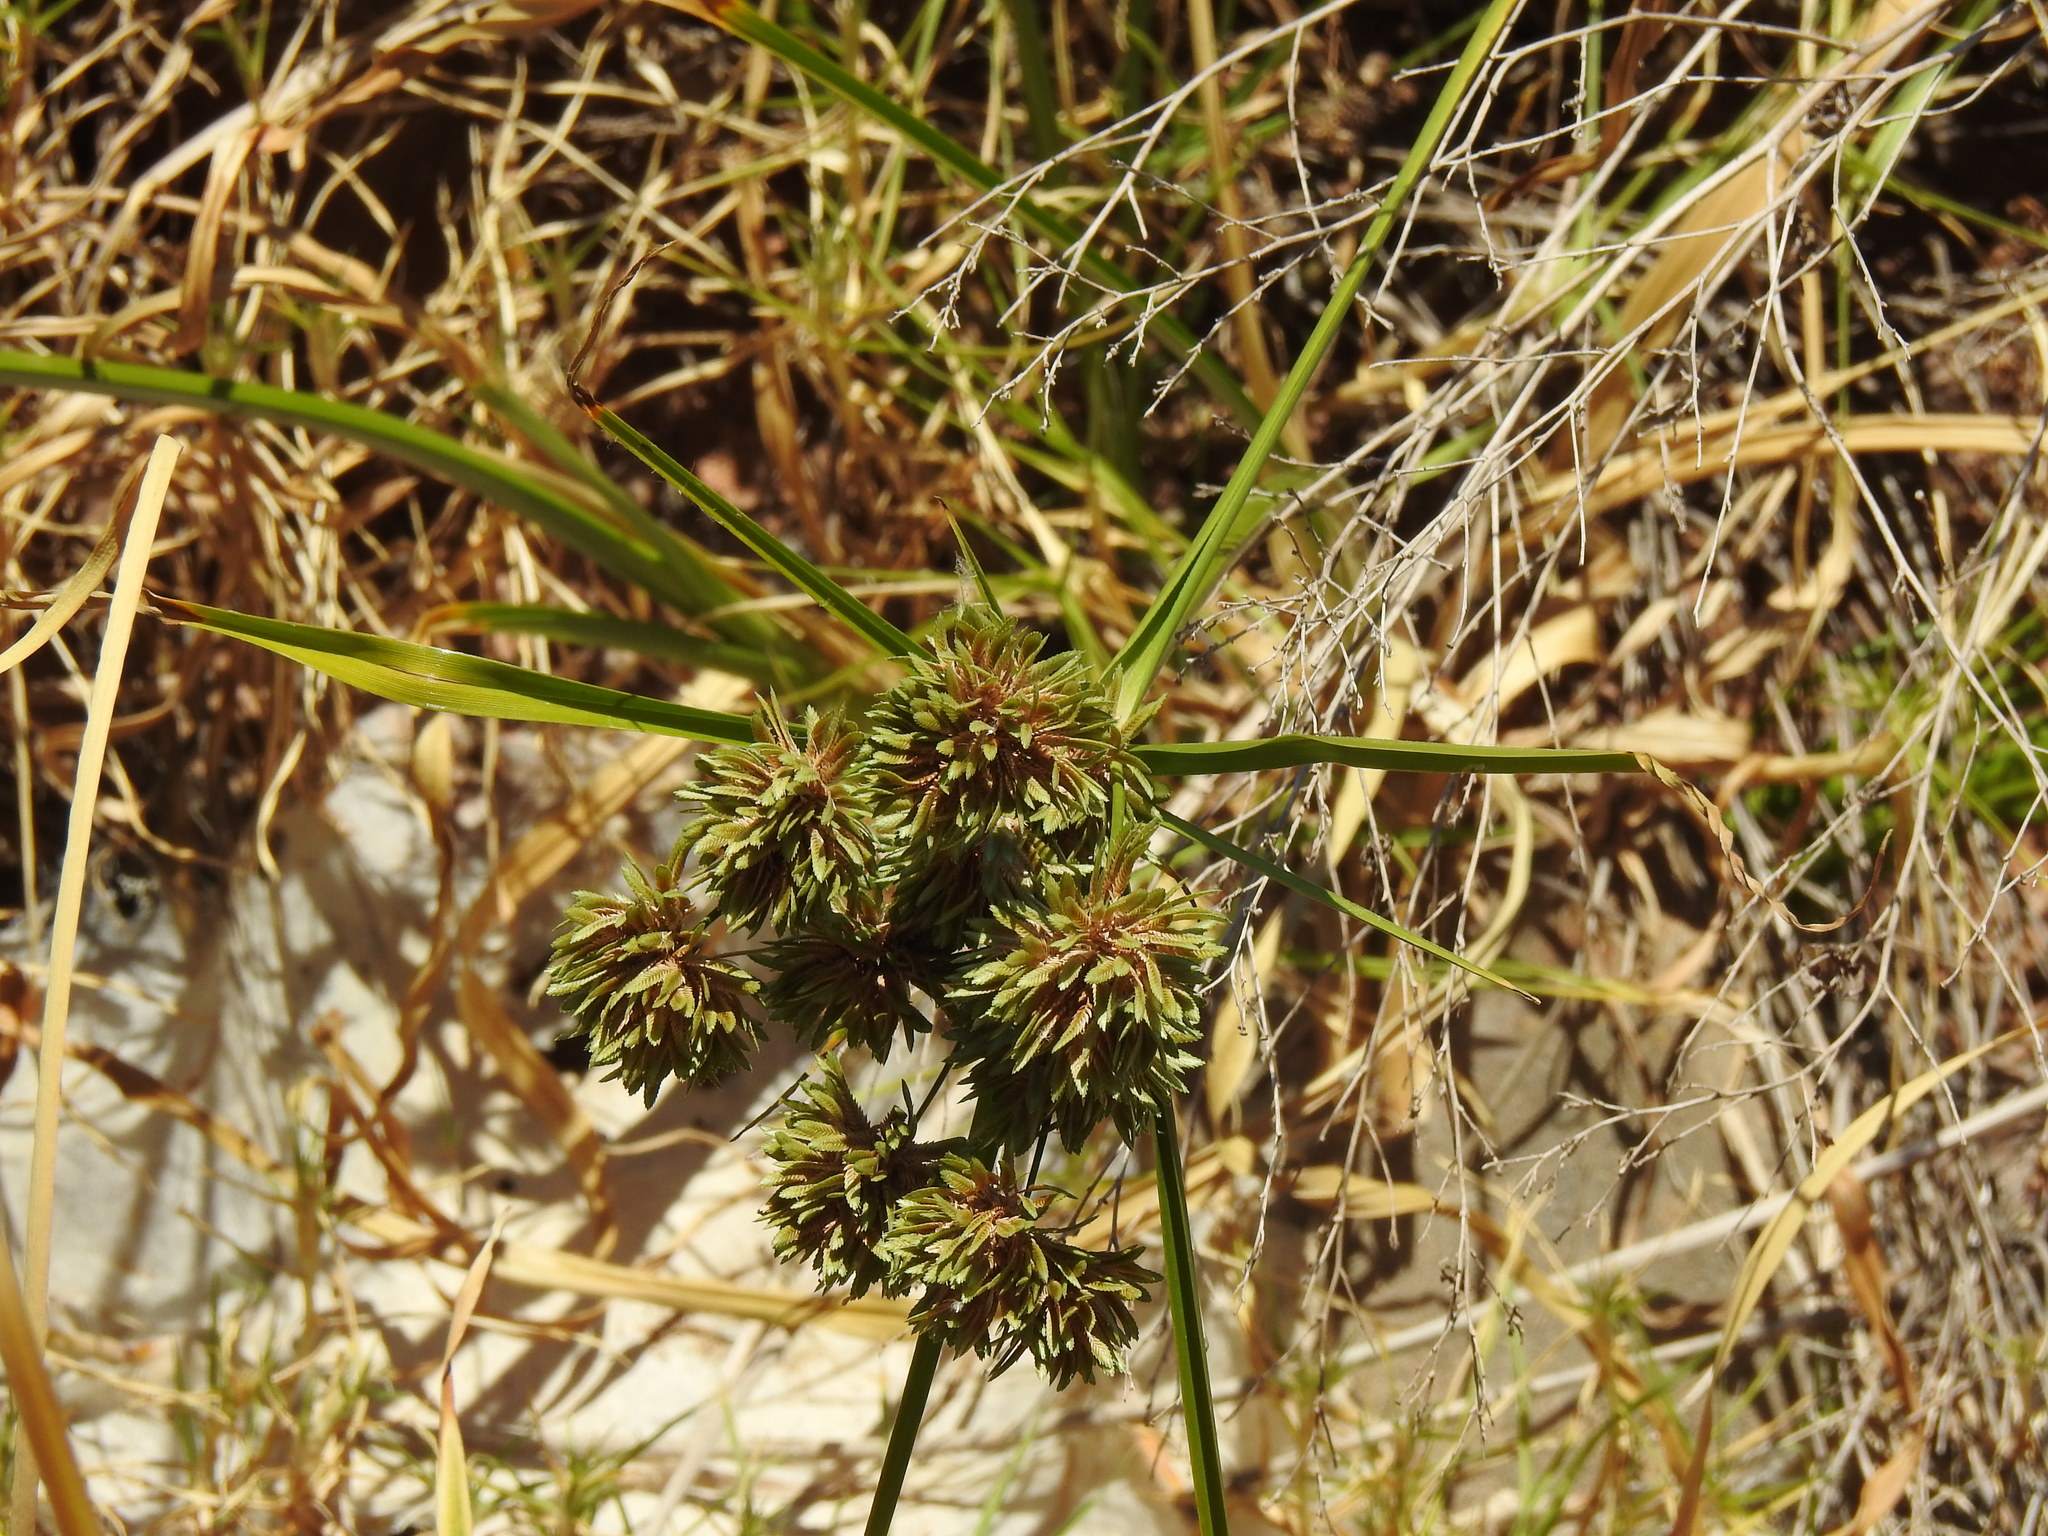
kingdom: Plantae
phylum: Tracheophyta
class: Liliopsida
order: Poales
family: Cyperaceae
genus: Cyperus
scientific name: Cyperus eragrostis
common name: Tall flatsedge
